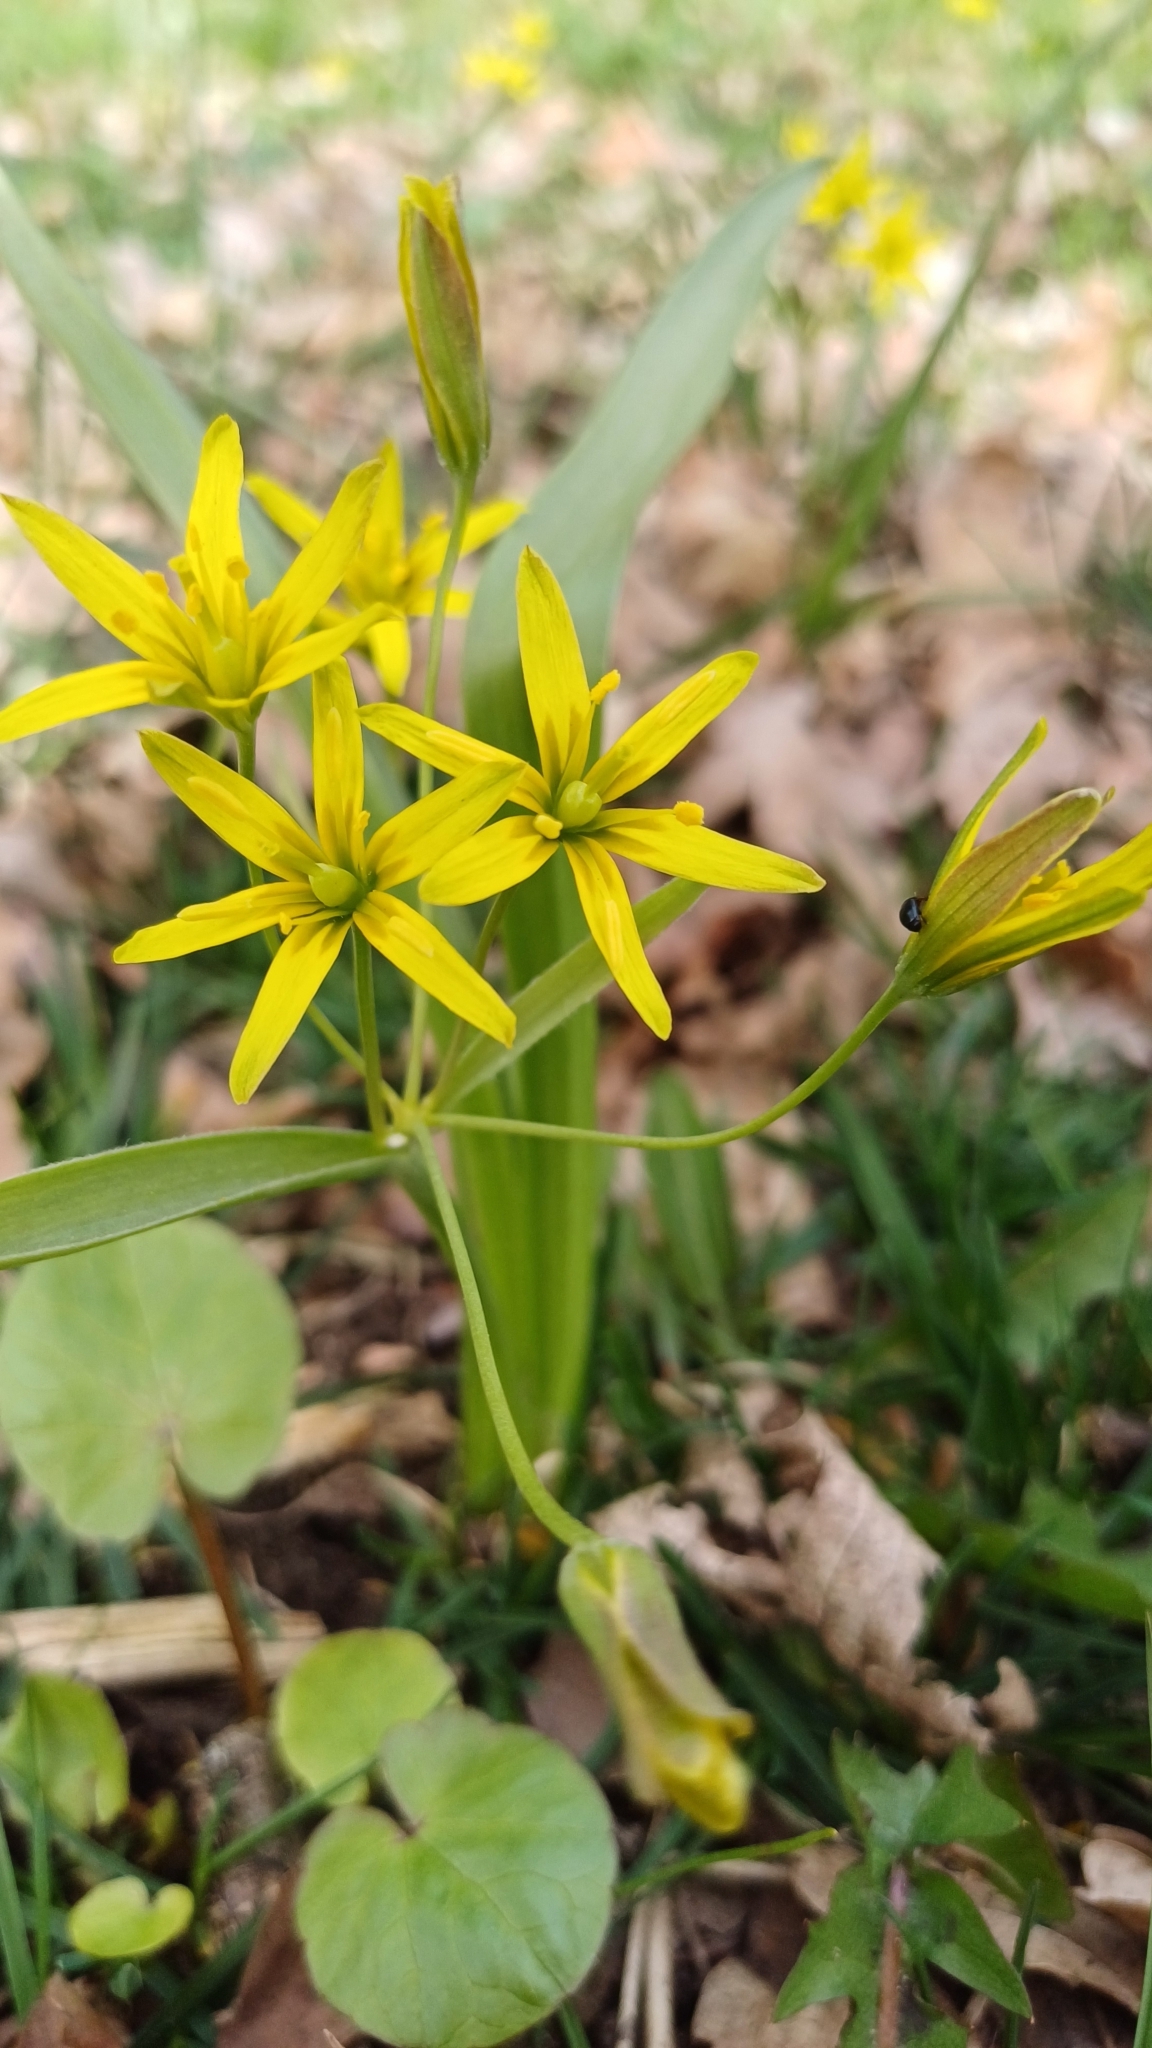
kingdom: Plantae
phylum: Tracheophyta
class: Liliopsida
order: Liliales
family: Liliaceae
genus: Gagea
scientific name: Gagea lutea
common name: Yellow star-of-bethlehem
